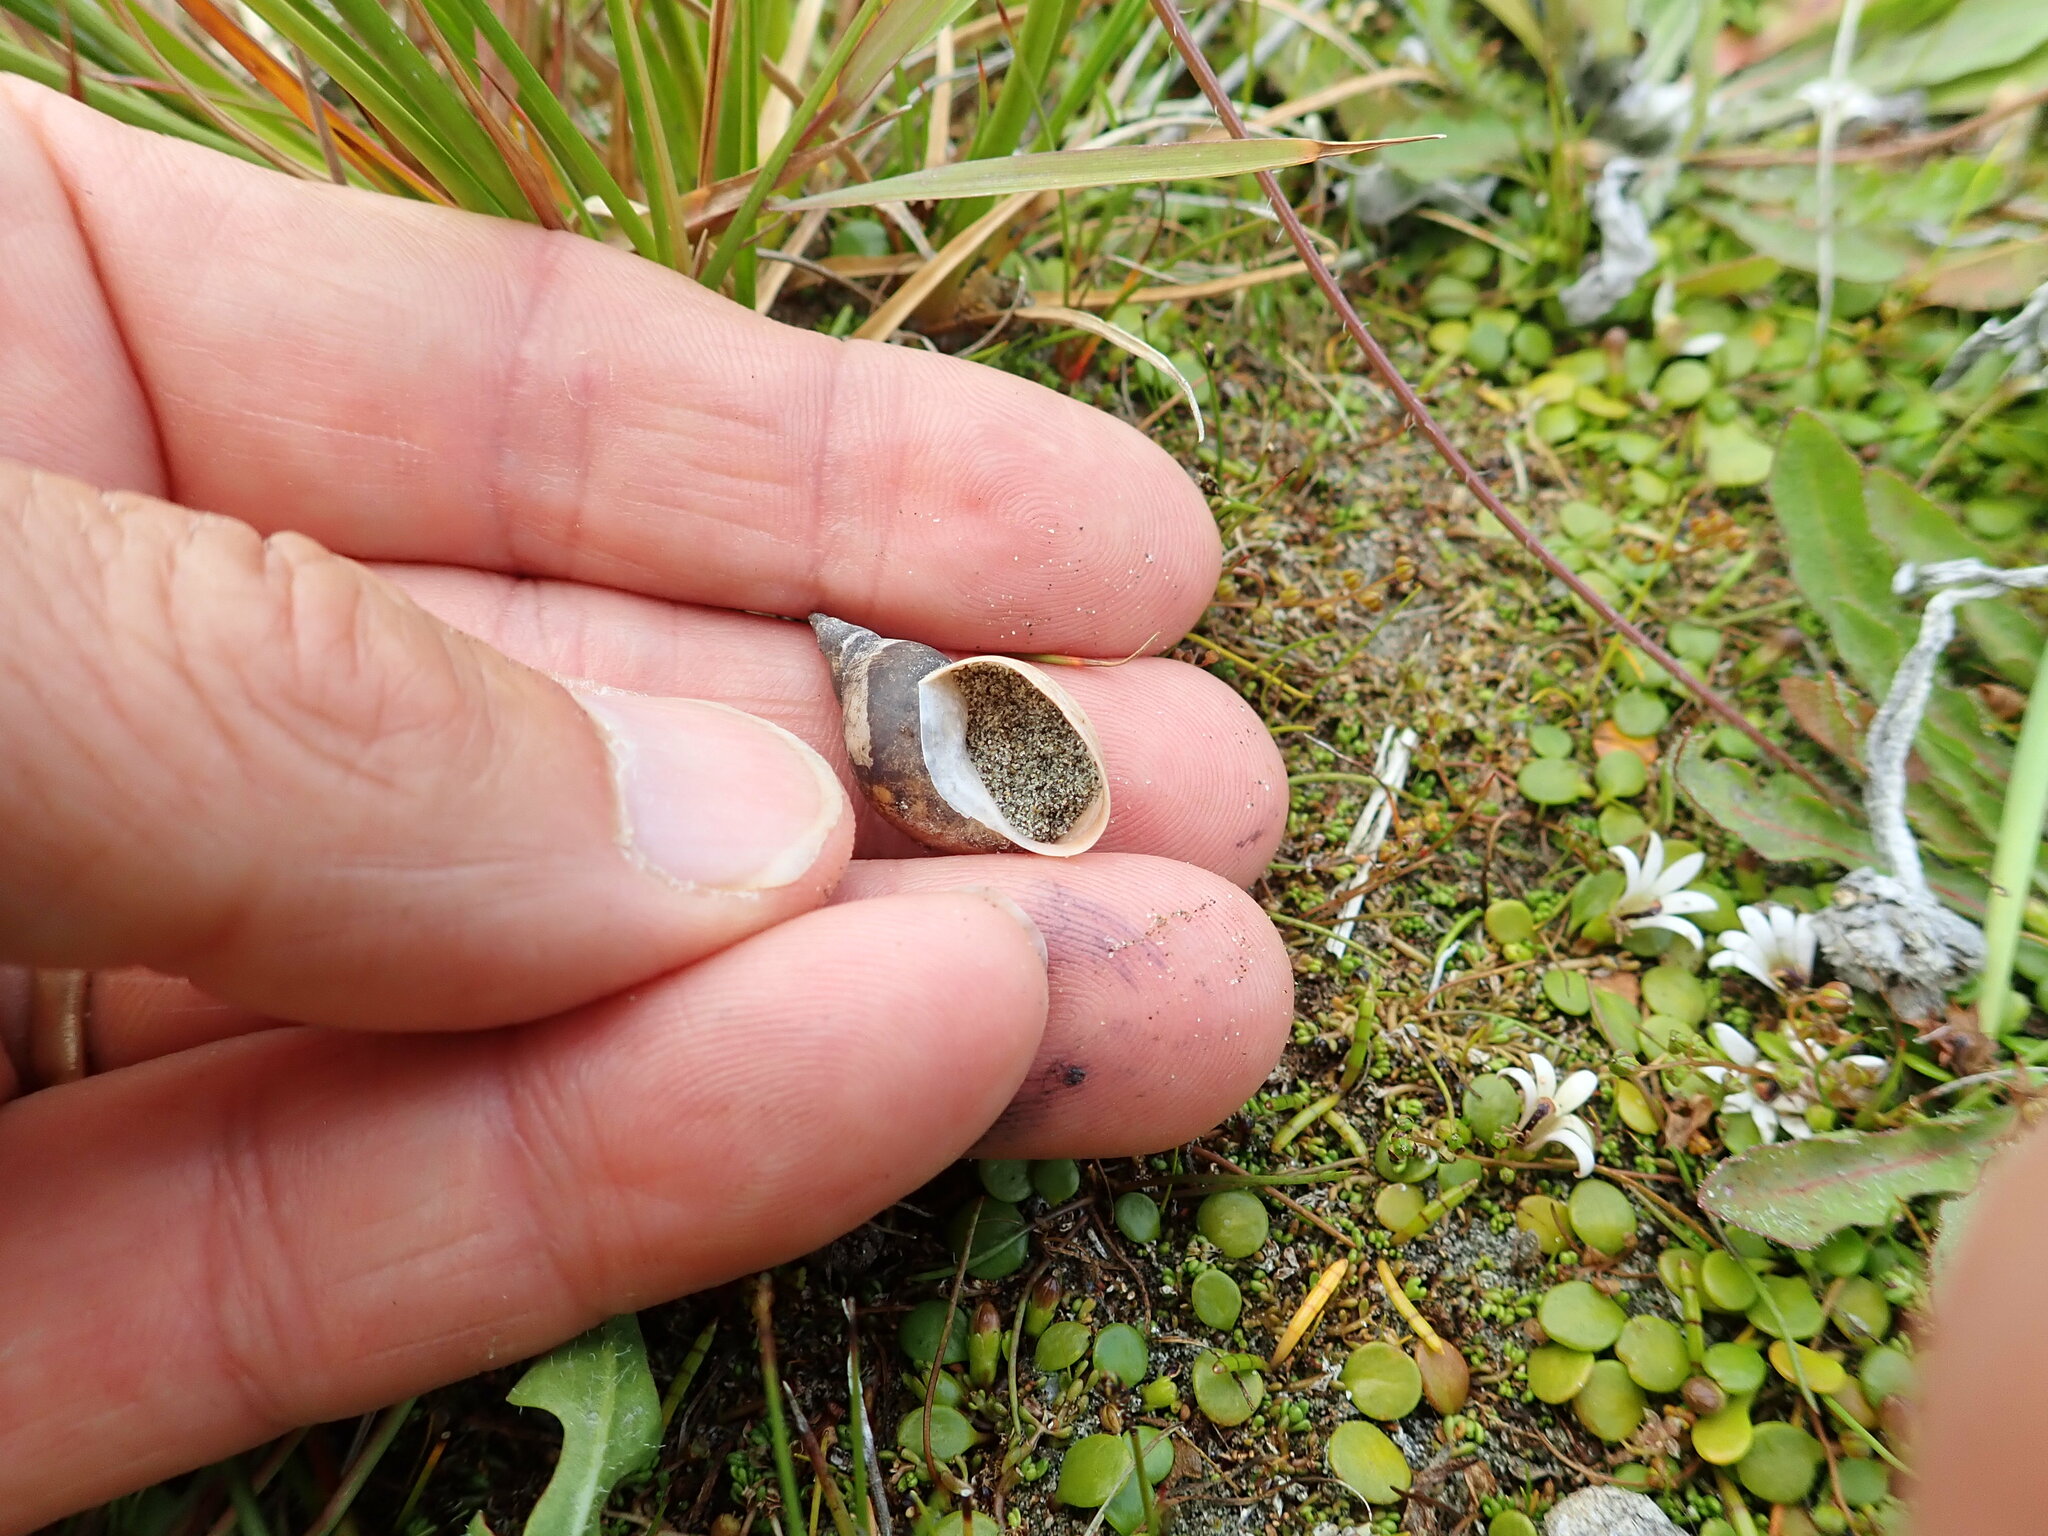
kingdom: Animalia
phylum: Mollusca
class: Gastropoda
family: Lymnaeidae
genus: Lymnaea
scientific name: Lymnaea stagnalis
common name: Great pond snail
